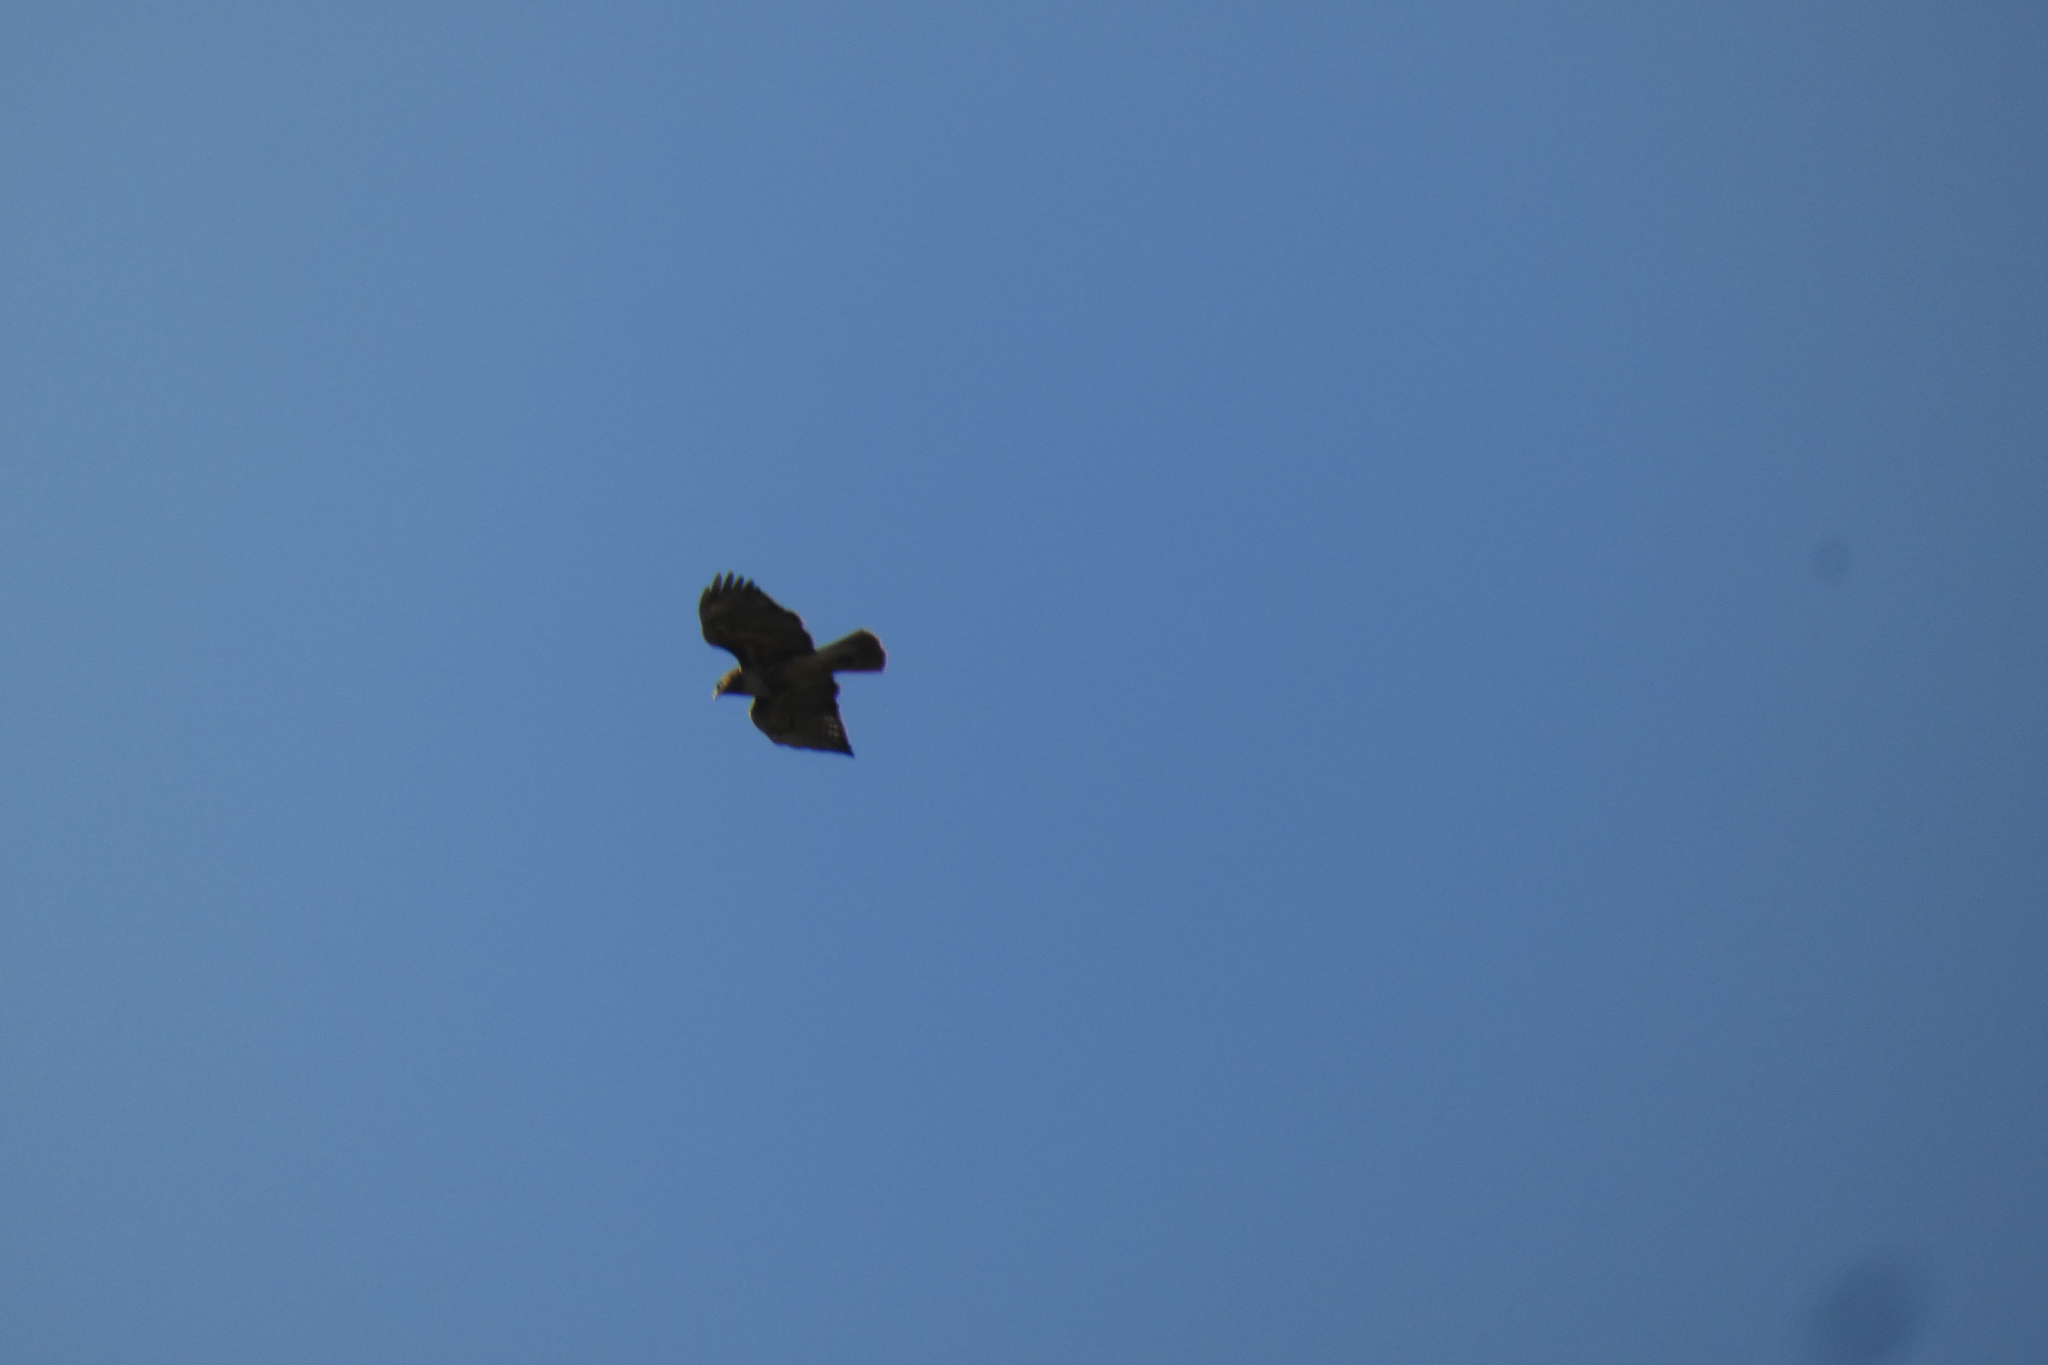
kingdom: Animalia
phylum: Chordata
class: Aves
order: Accipitriformes
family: Accipitridae
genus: Buteo
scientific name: Buteo jamaicensis
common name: Red-tailed hawk
